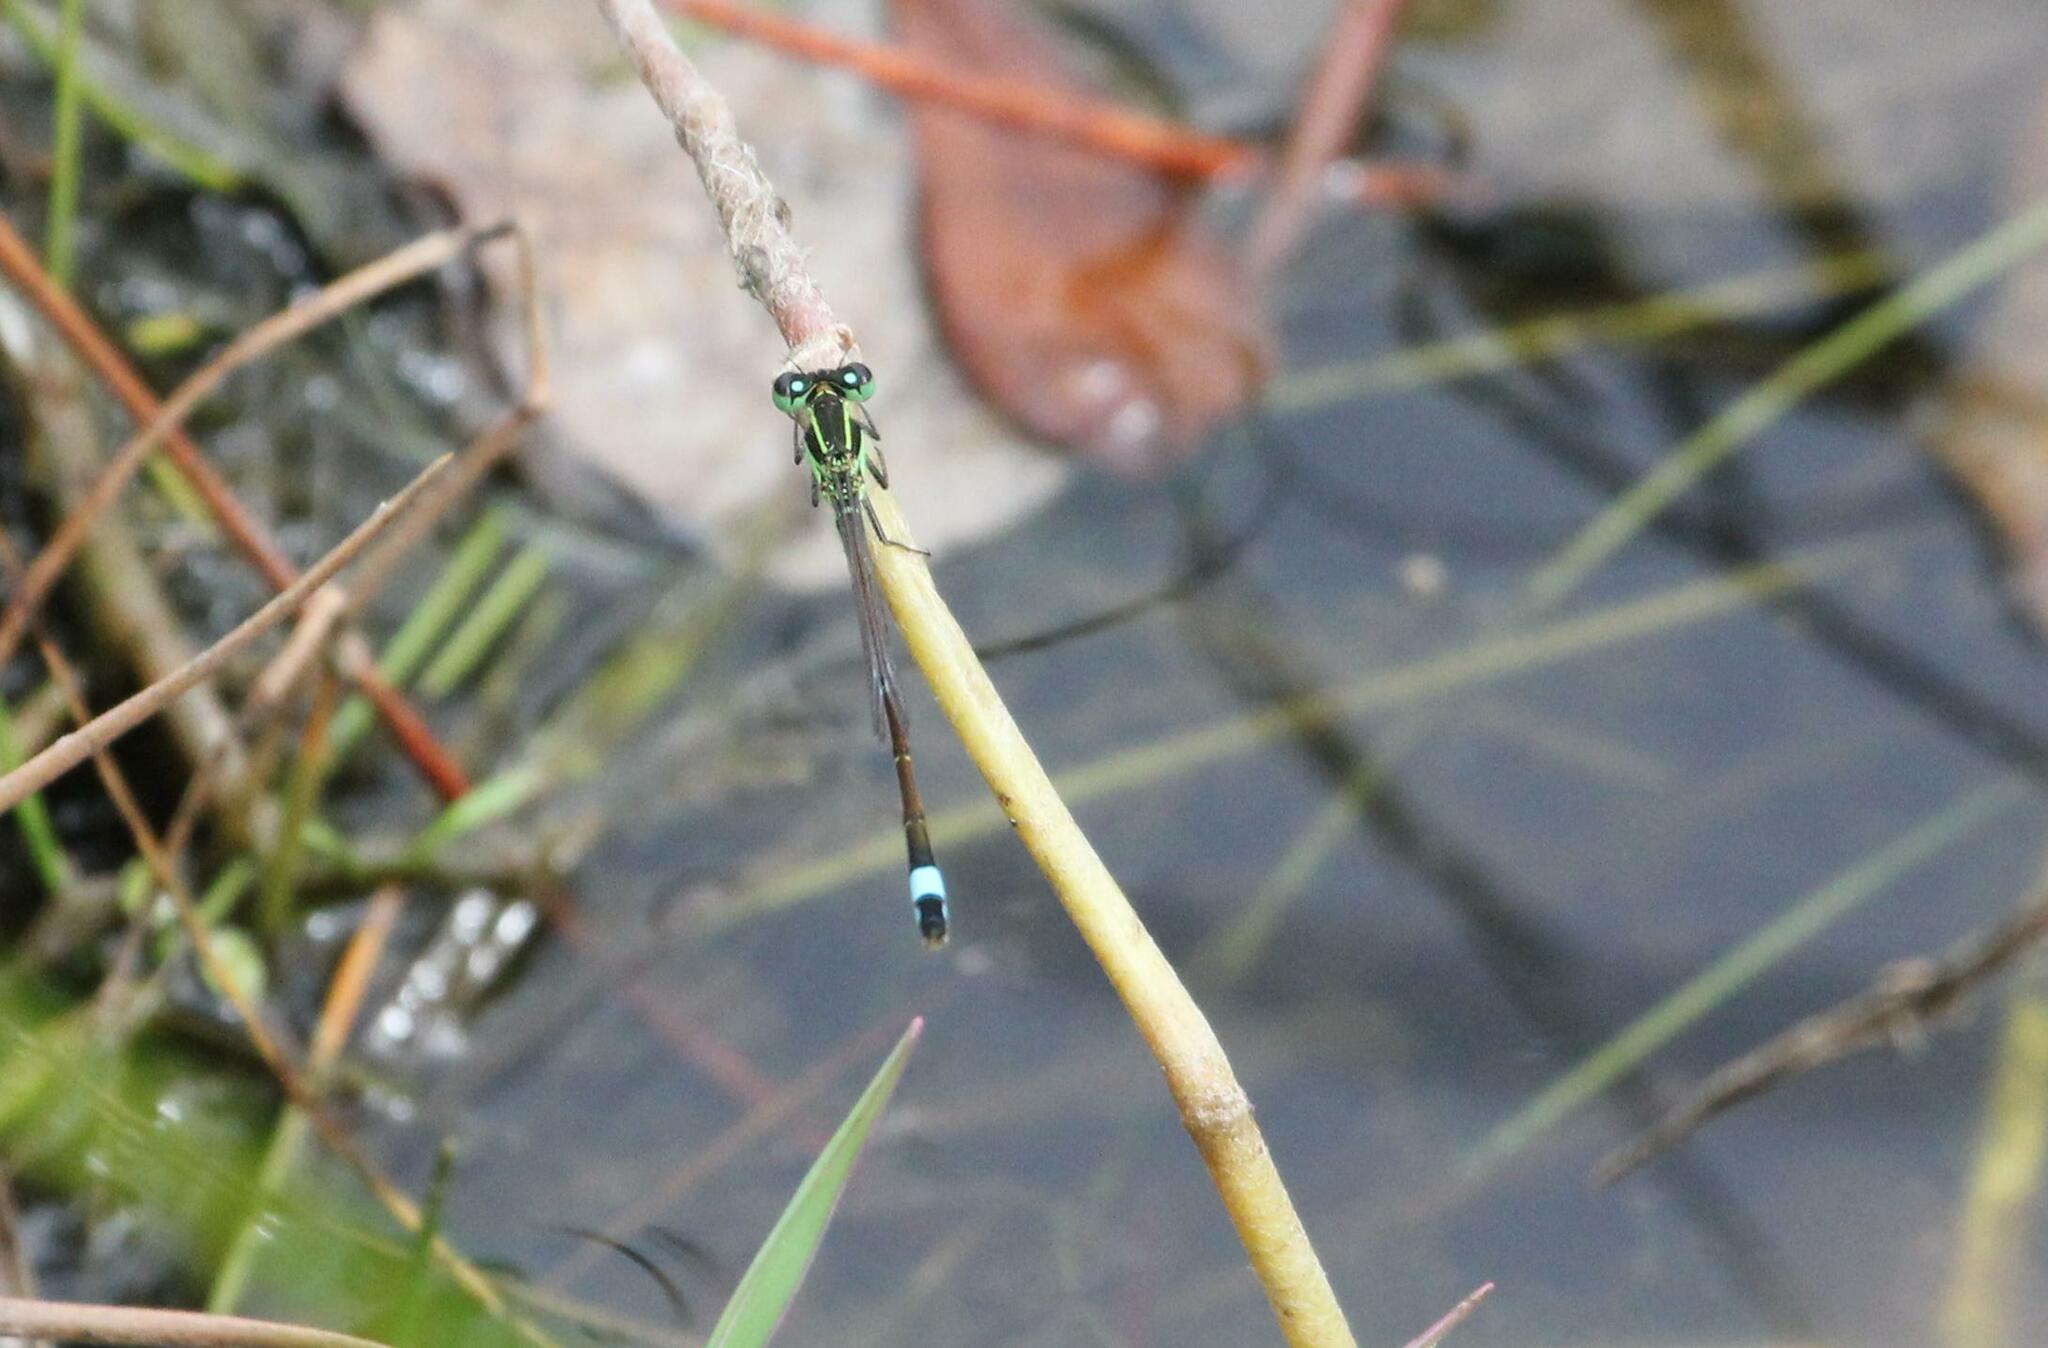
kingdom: Animalia
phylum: Arthropoda
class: Insecta
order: Odonata
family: Coenagrionidae
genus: Ischnura
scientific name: Ischnura ramburii
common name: Rambur's forktail
